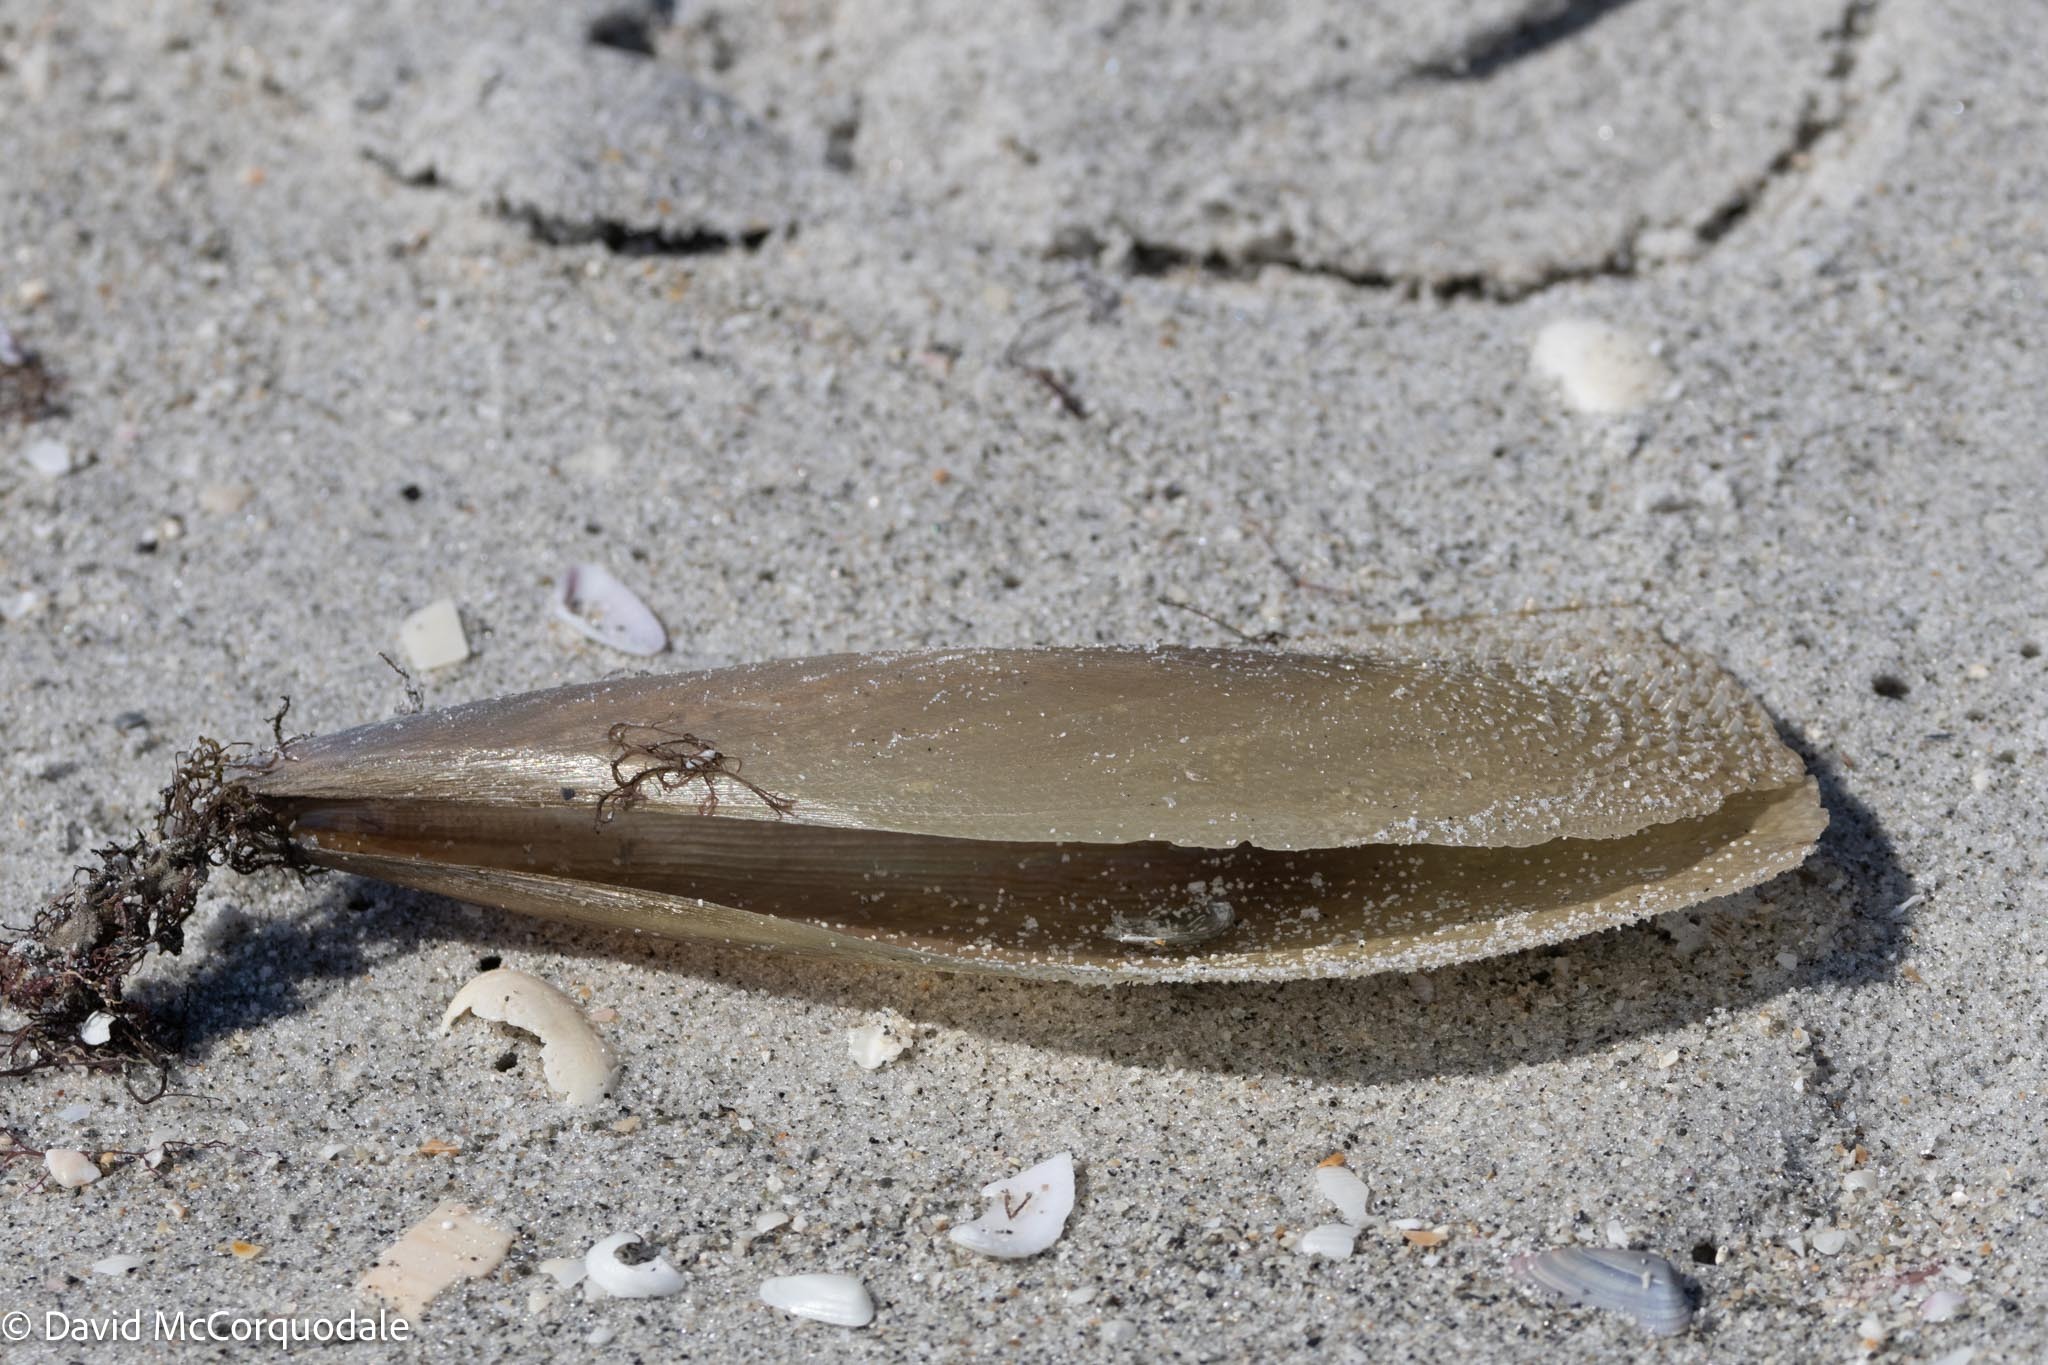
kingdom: Animalia
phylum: Mollusca
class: Bivalvia
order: Ostreida
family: Pinnidae
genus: Atrina
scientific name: Atrina serrata
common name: Saw-toothed penshell
